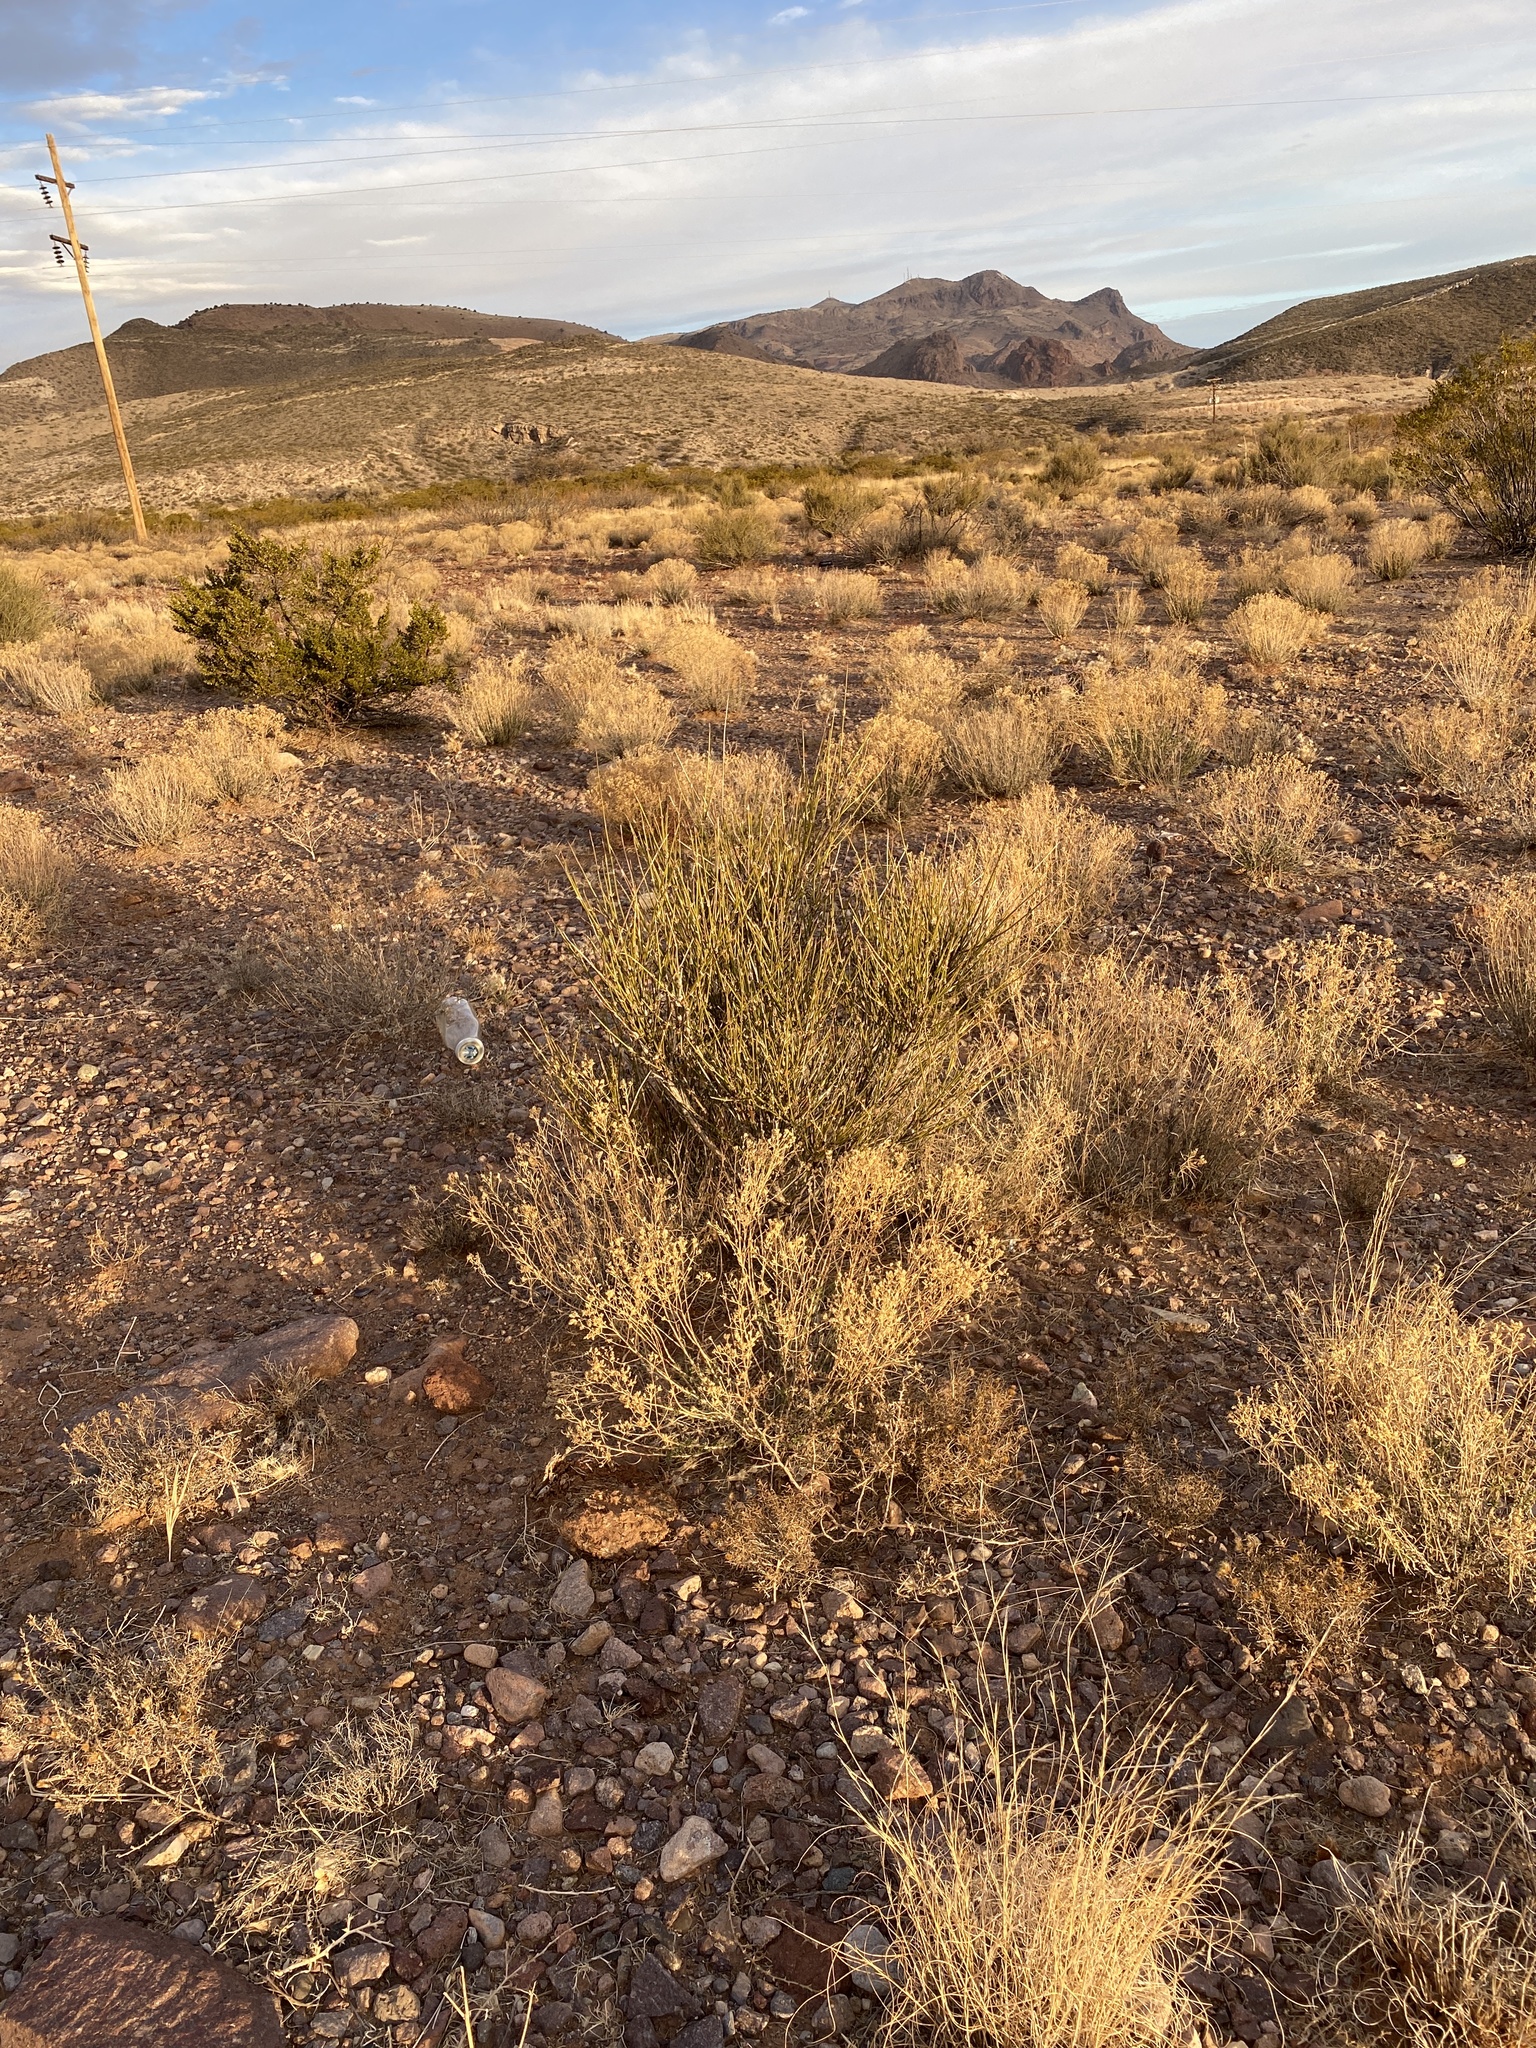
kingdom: Plantae
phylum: Tracheophyta
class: Gnetopsida
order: Ephedrales
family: Ephedraceae
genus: Ephedra
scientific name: Ephedra trifurca
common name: Mexican-tea
